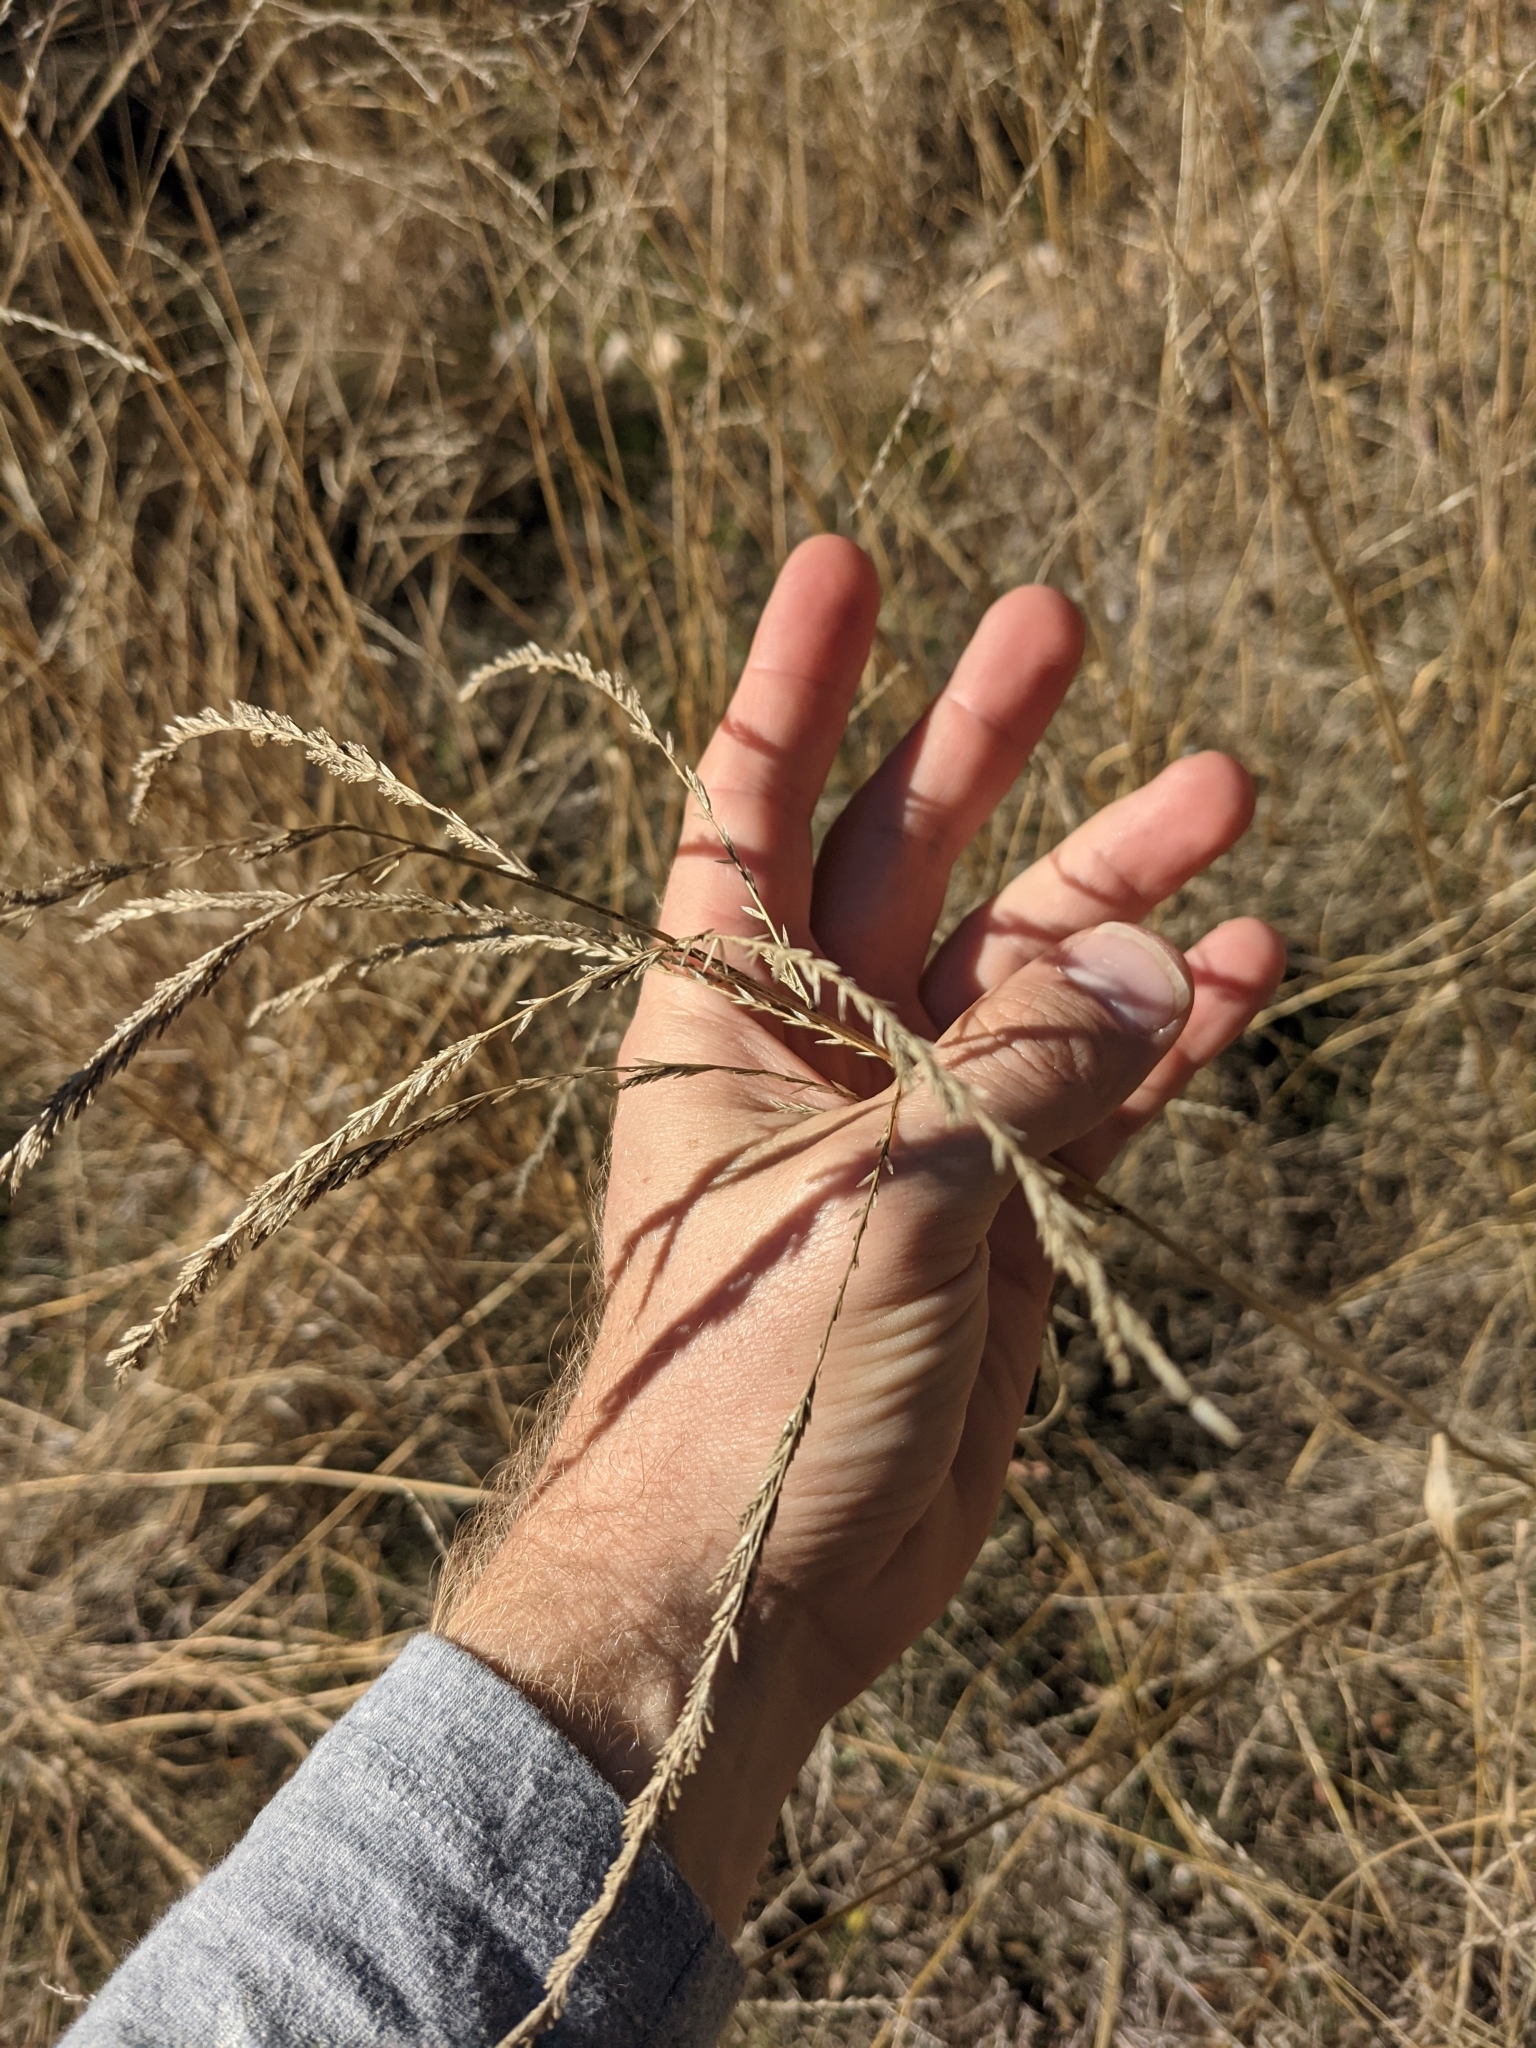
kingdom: Plantae
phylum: Tracheophyta
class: Liliopsida
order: Poales
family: Poaceae
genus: Disakisperma
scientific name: Disakisperma dubium
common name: Green sprangletop
